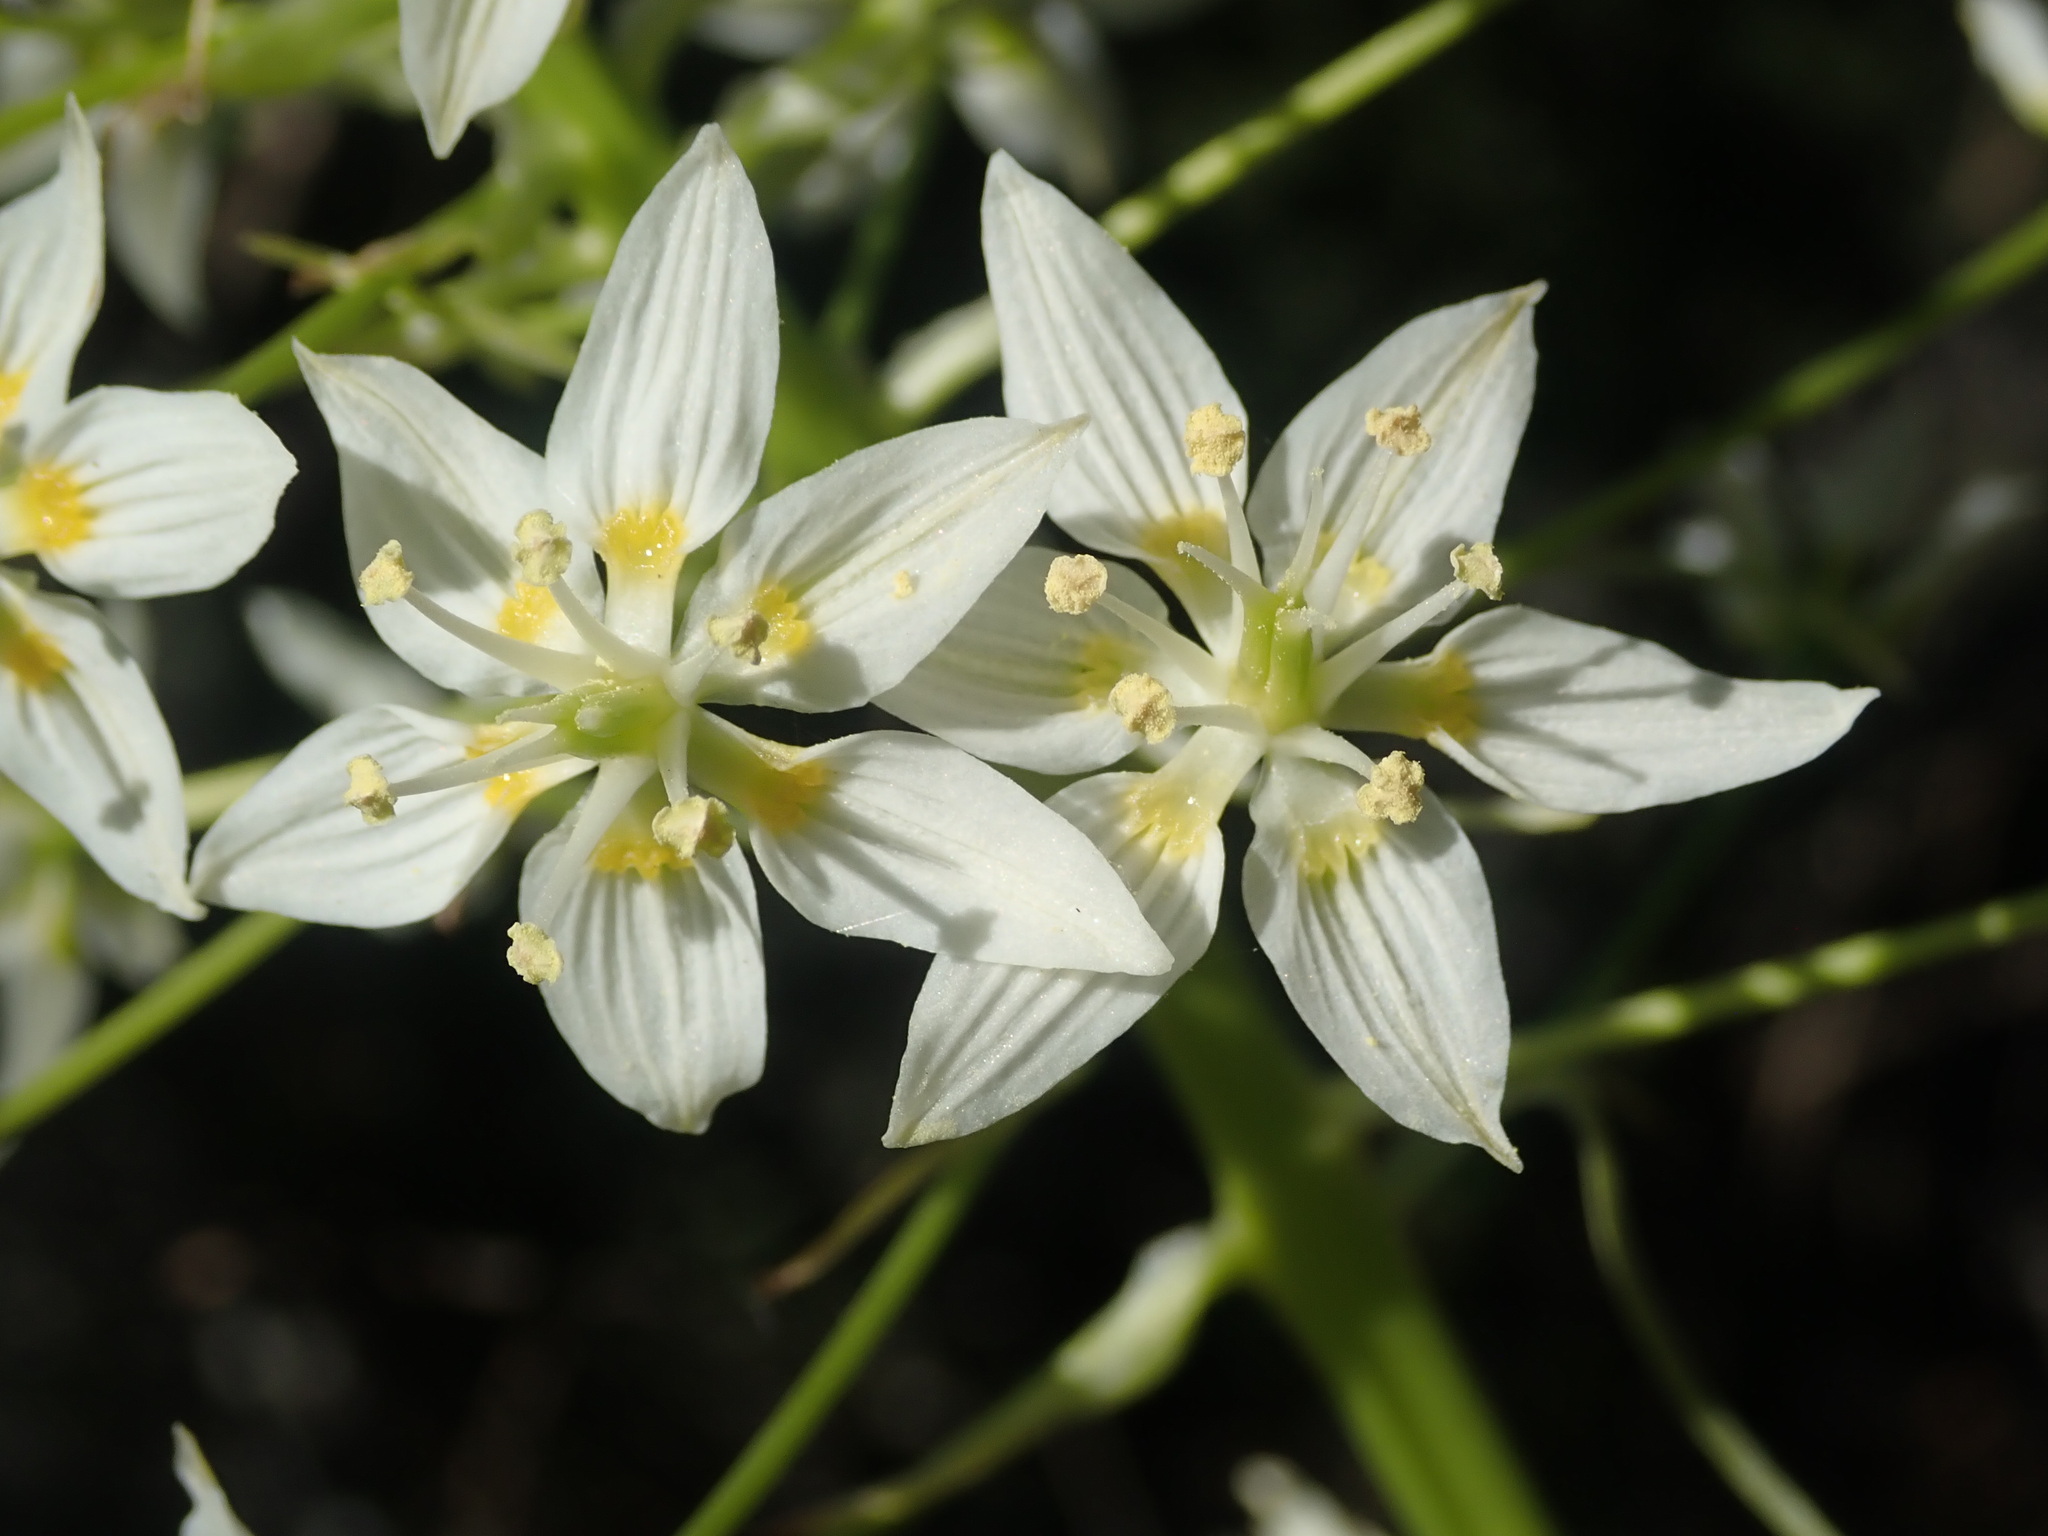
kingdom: Plantae
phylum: Tracheophyta
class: Liliopsida
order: Liliales
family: Melanthiaceae
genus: Toxicoscordion
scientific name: Toxicoscordion fremontii
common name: Fremont's death camas
